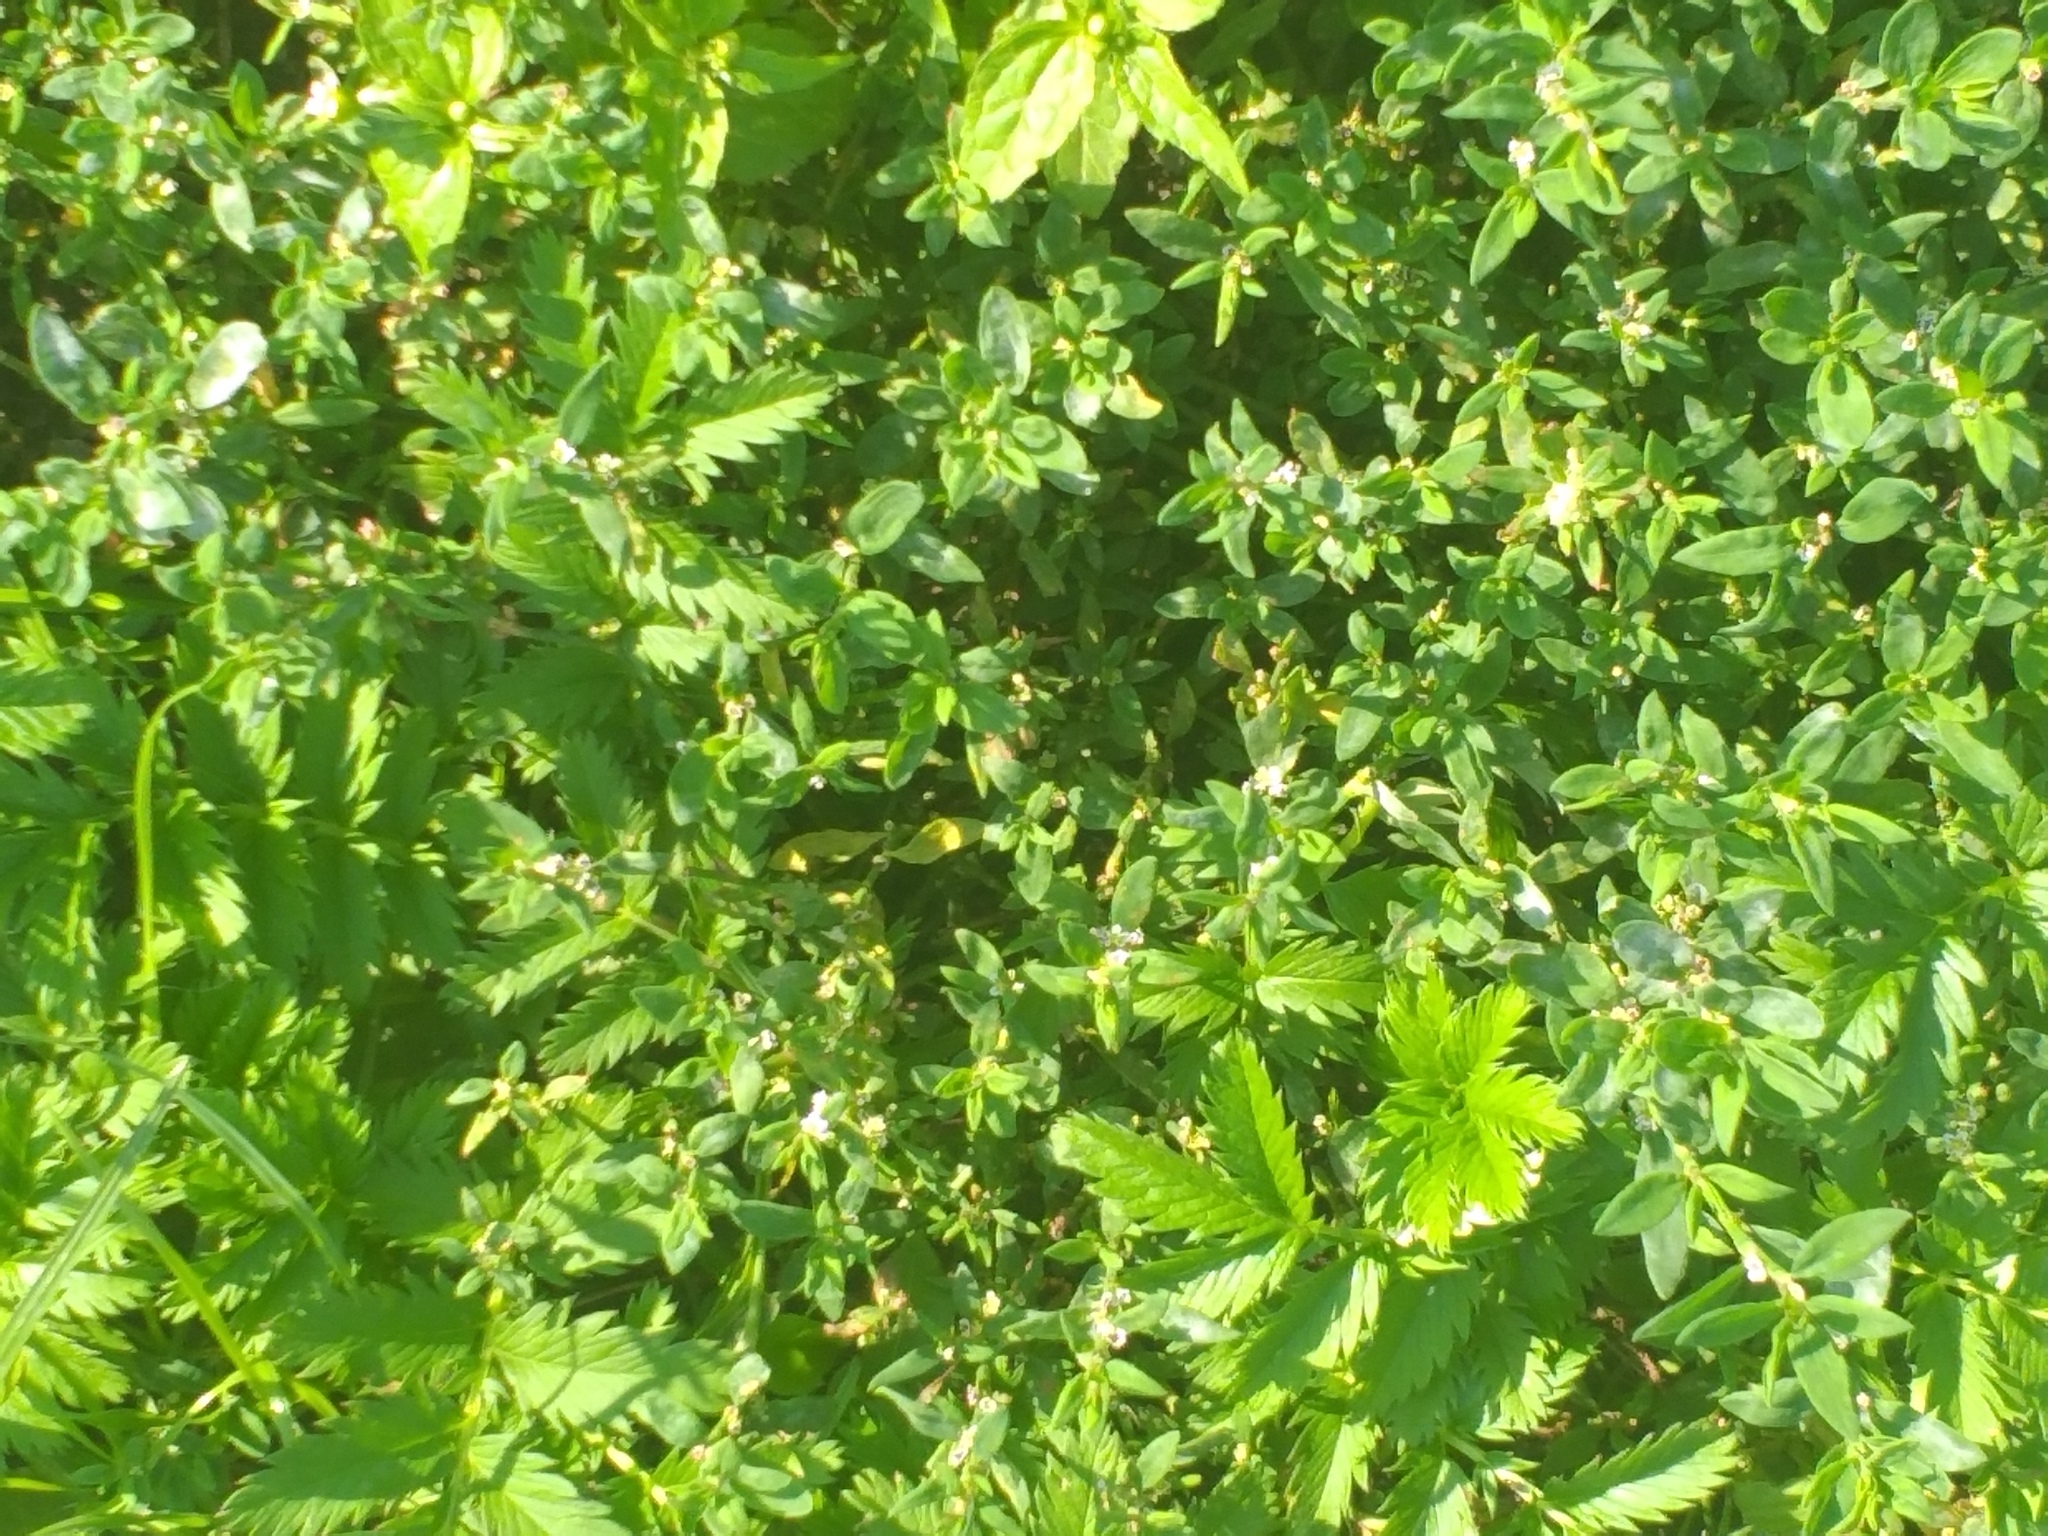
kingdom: Plantae
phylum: Tracheophyta
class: Magnoliopsida
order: Caryophyllales
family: Polygonaceae
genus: Polygonum
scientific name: Polygonum
